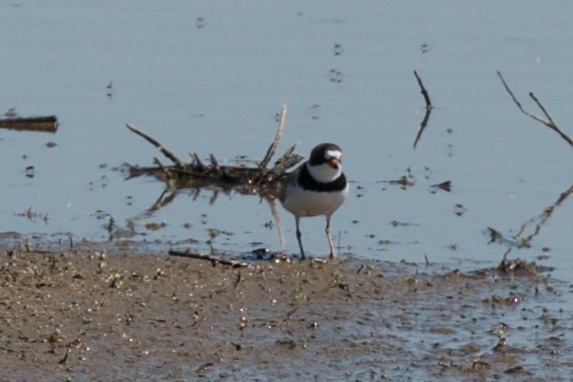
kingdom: Animalia
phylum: Chordata
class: Aves
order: Charadriiformes
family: Charadriidae
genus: Charadrius
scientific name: Charadrius semipalmatus
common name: Semipalmated plover
